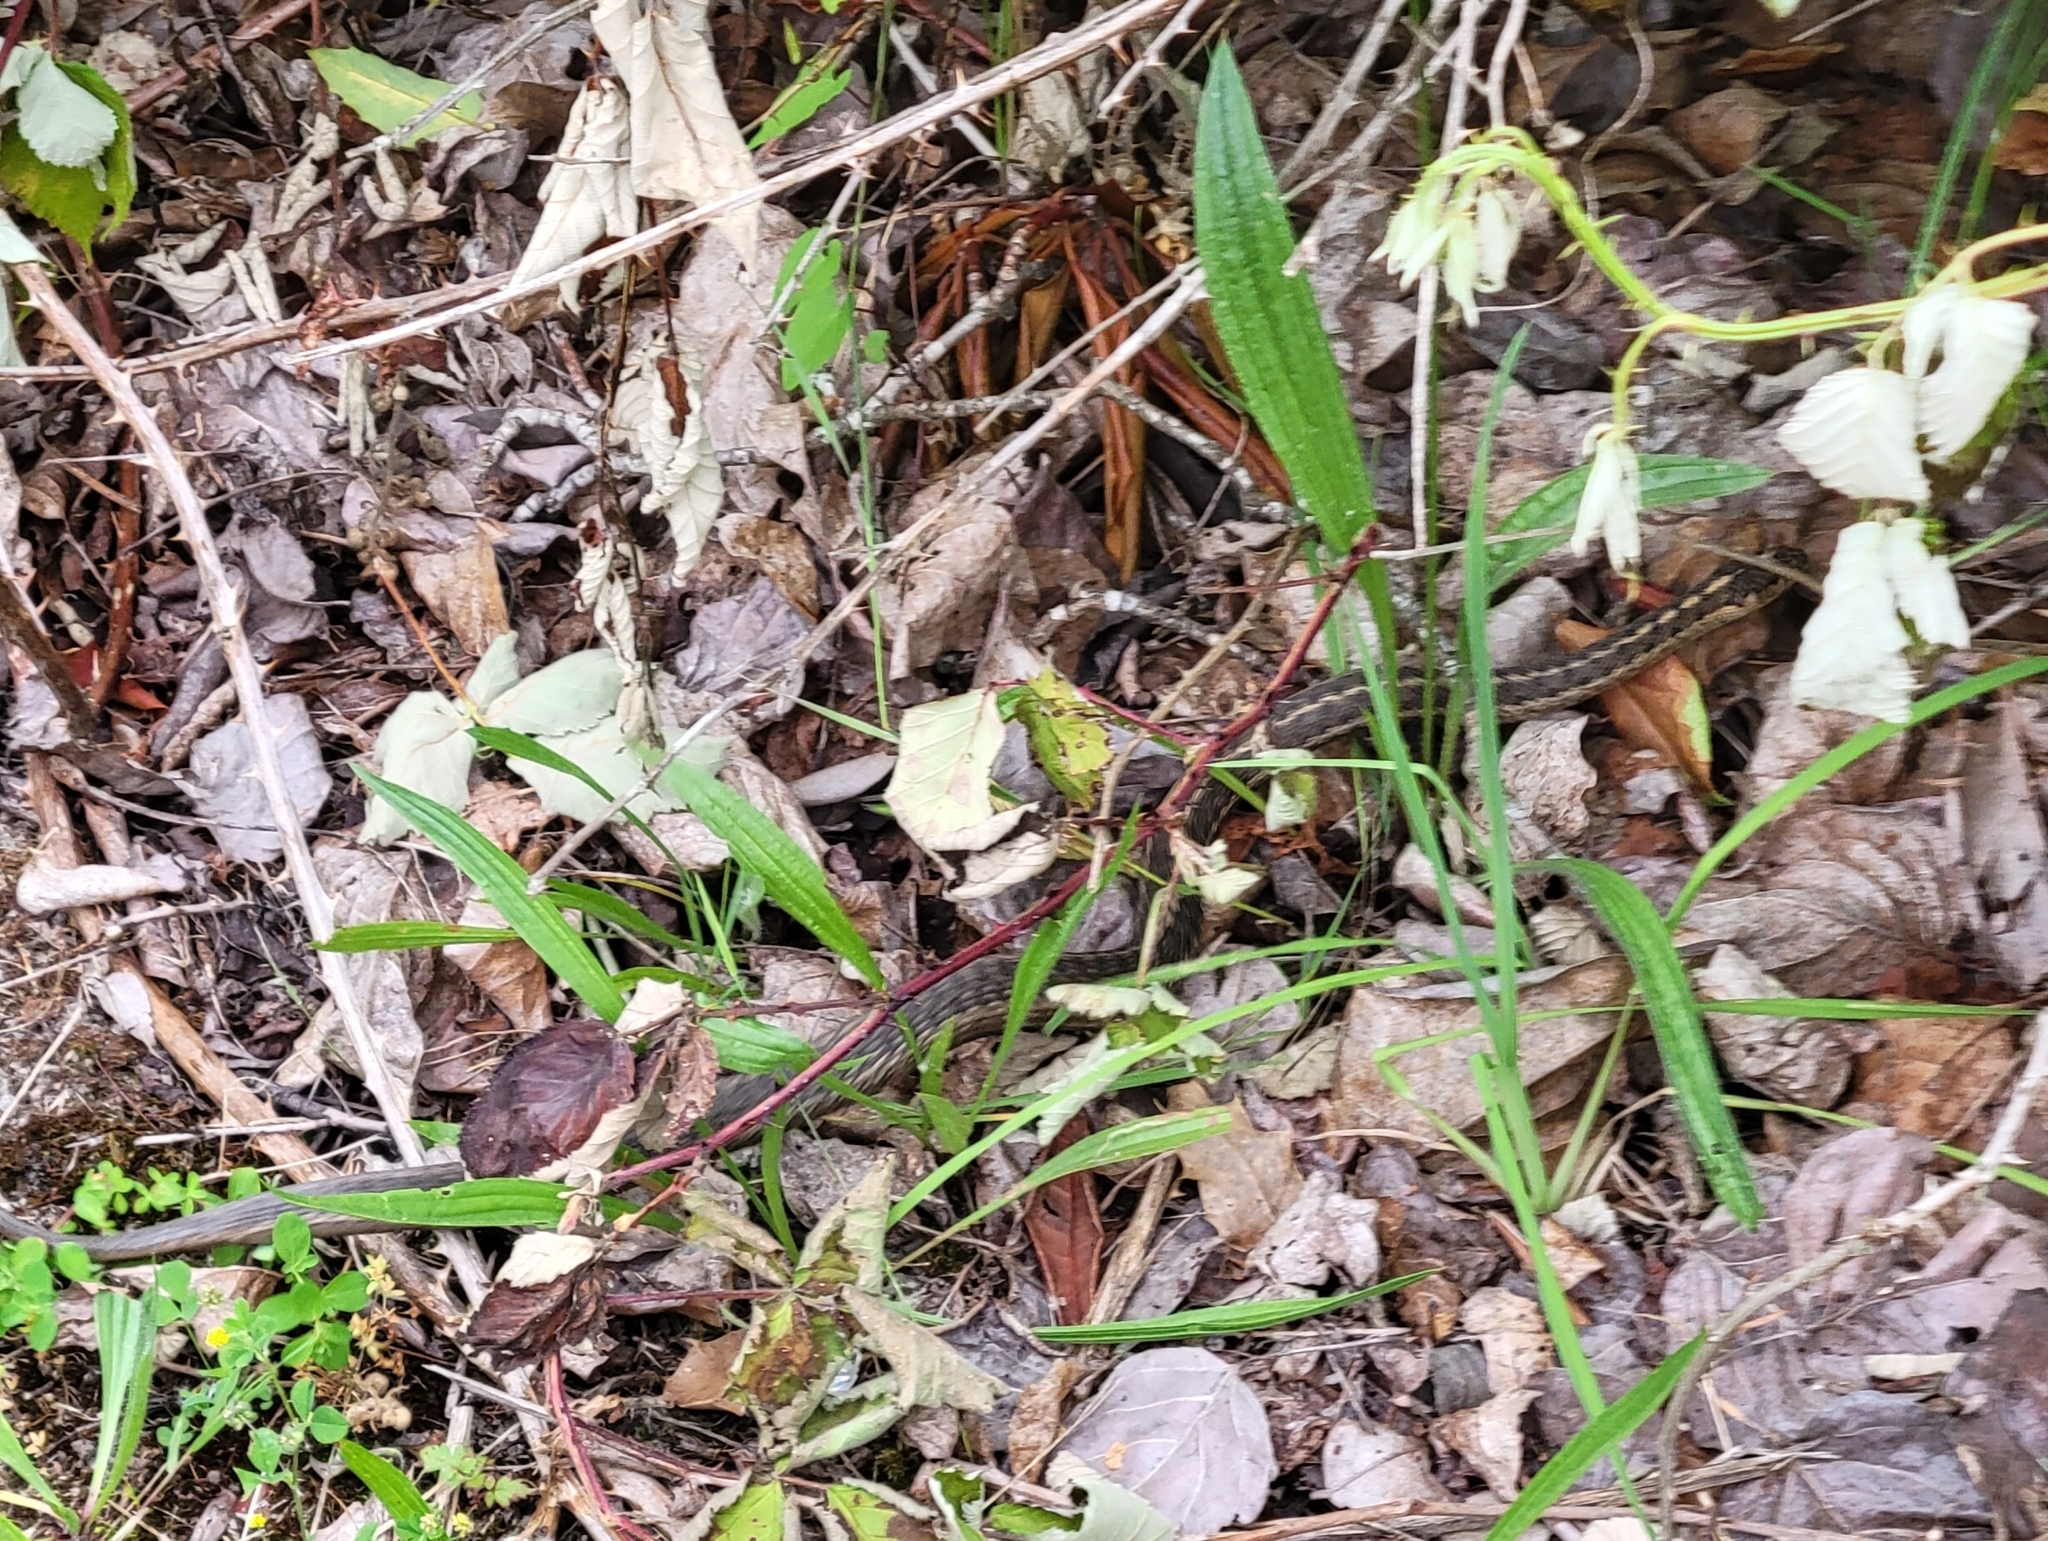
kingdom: Animalia
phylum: Chordata
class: Squamata
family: Colubridae
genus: Thamnophis
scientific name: Thamnophis elegans
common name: Western terrestrial garter snake
